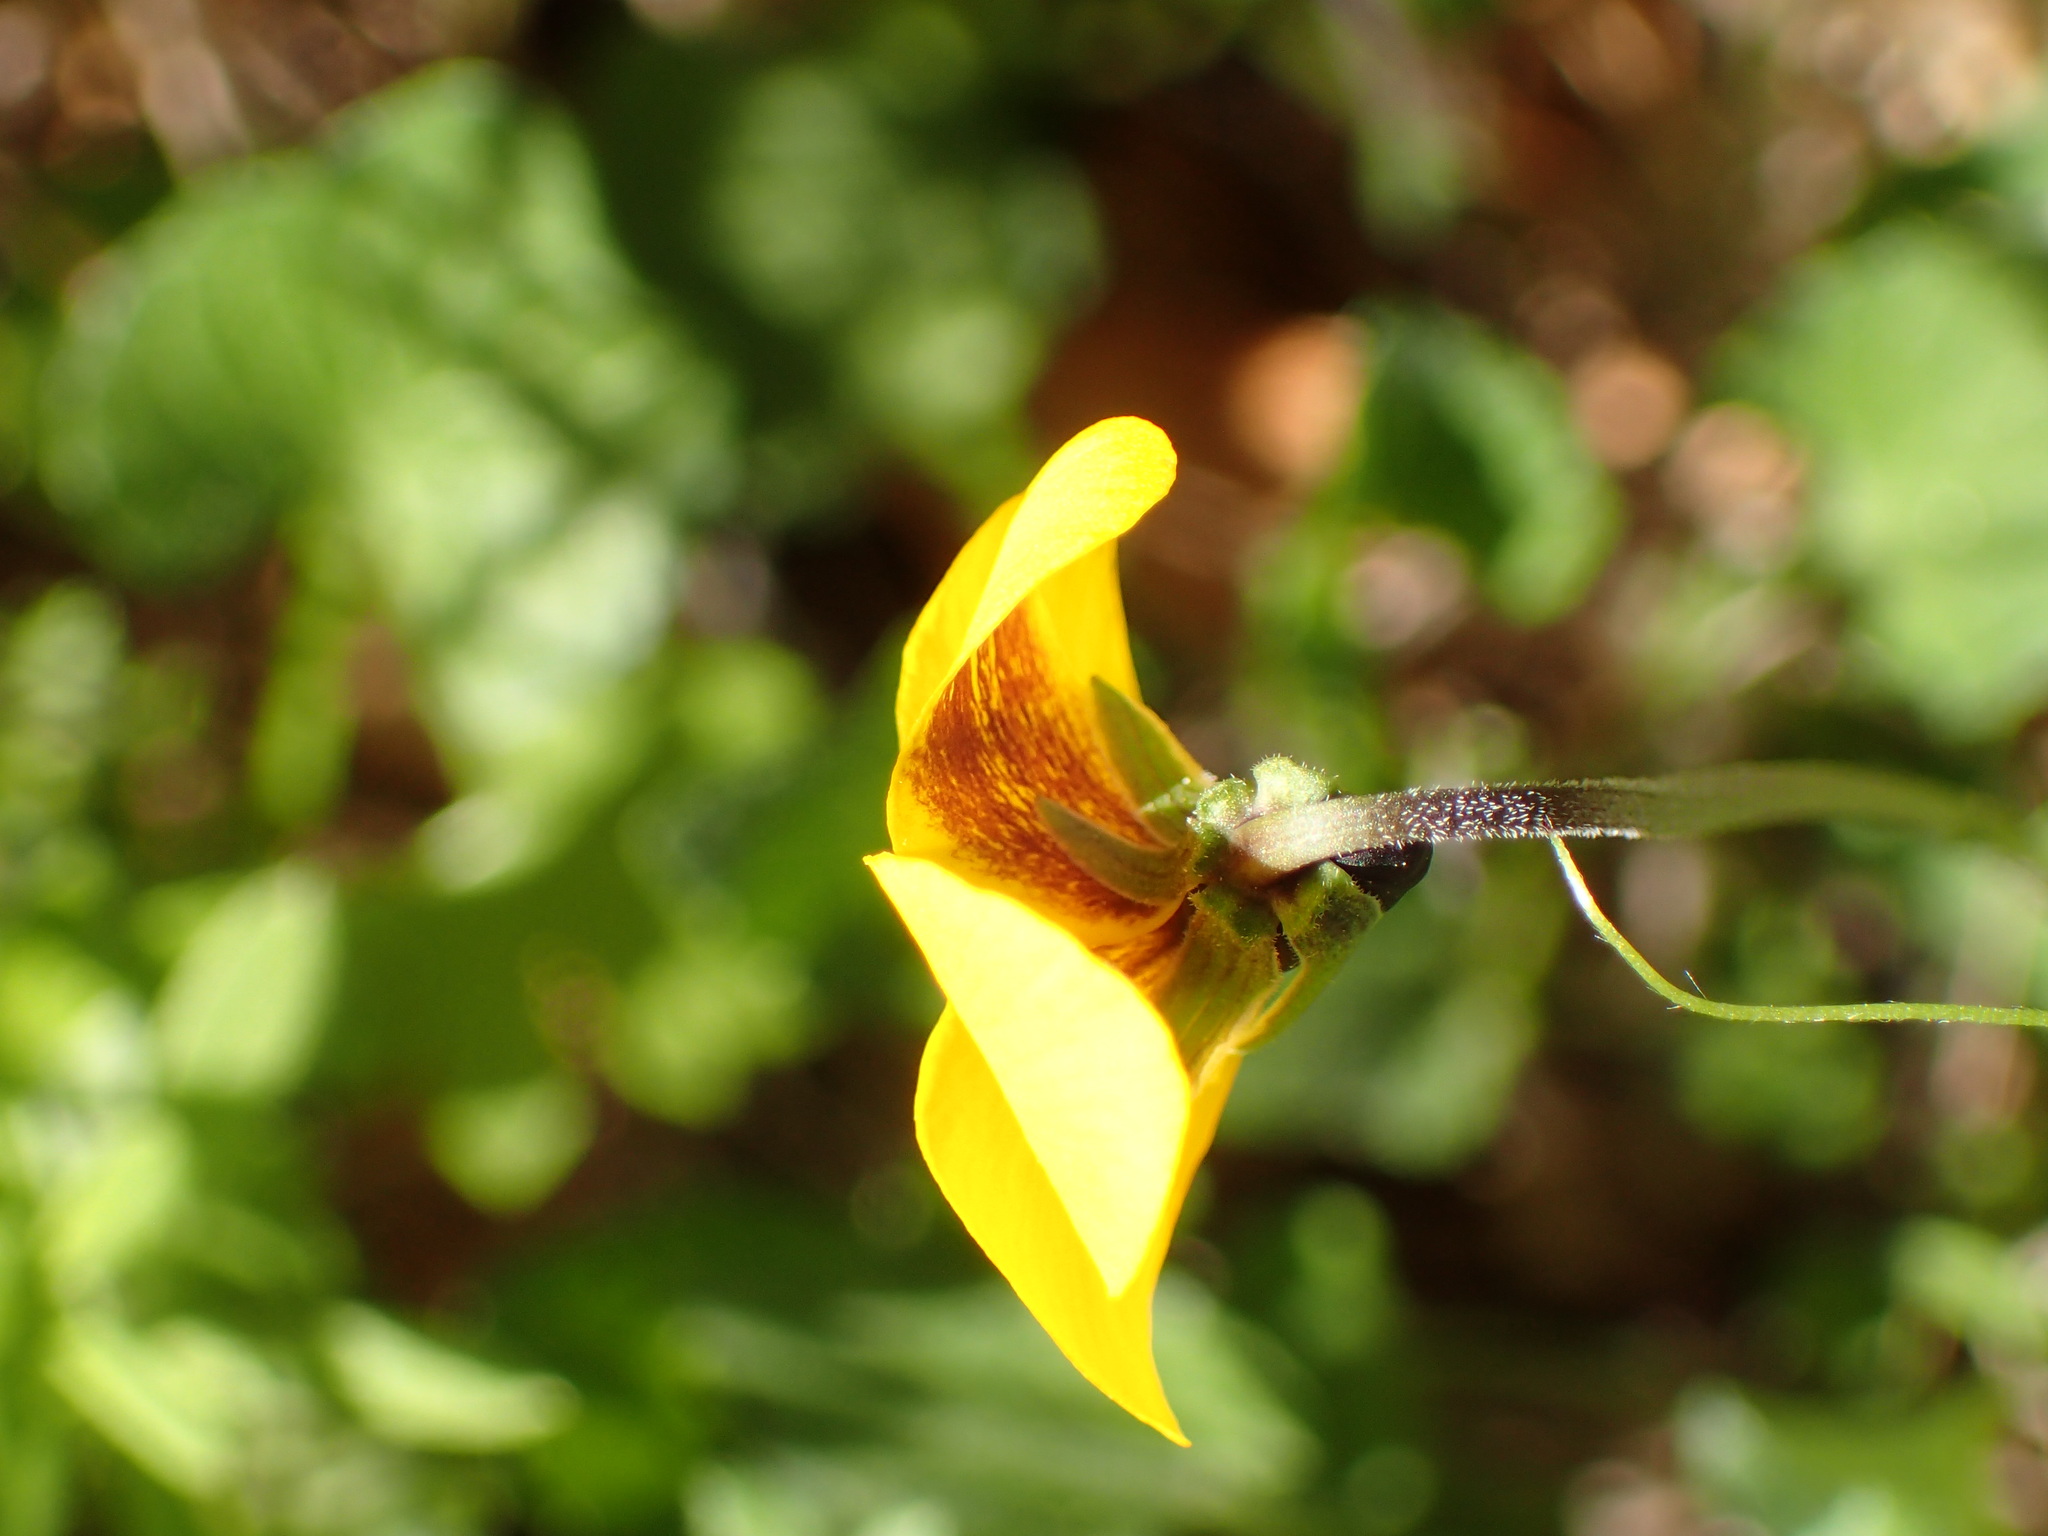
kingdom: Plantae
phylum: Tracheophyta
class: Magnoliopsida
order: Malpighiales
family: Violaceae
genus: Viola
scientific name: Viola pedunculata
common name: California golden violet
